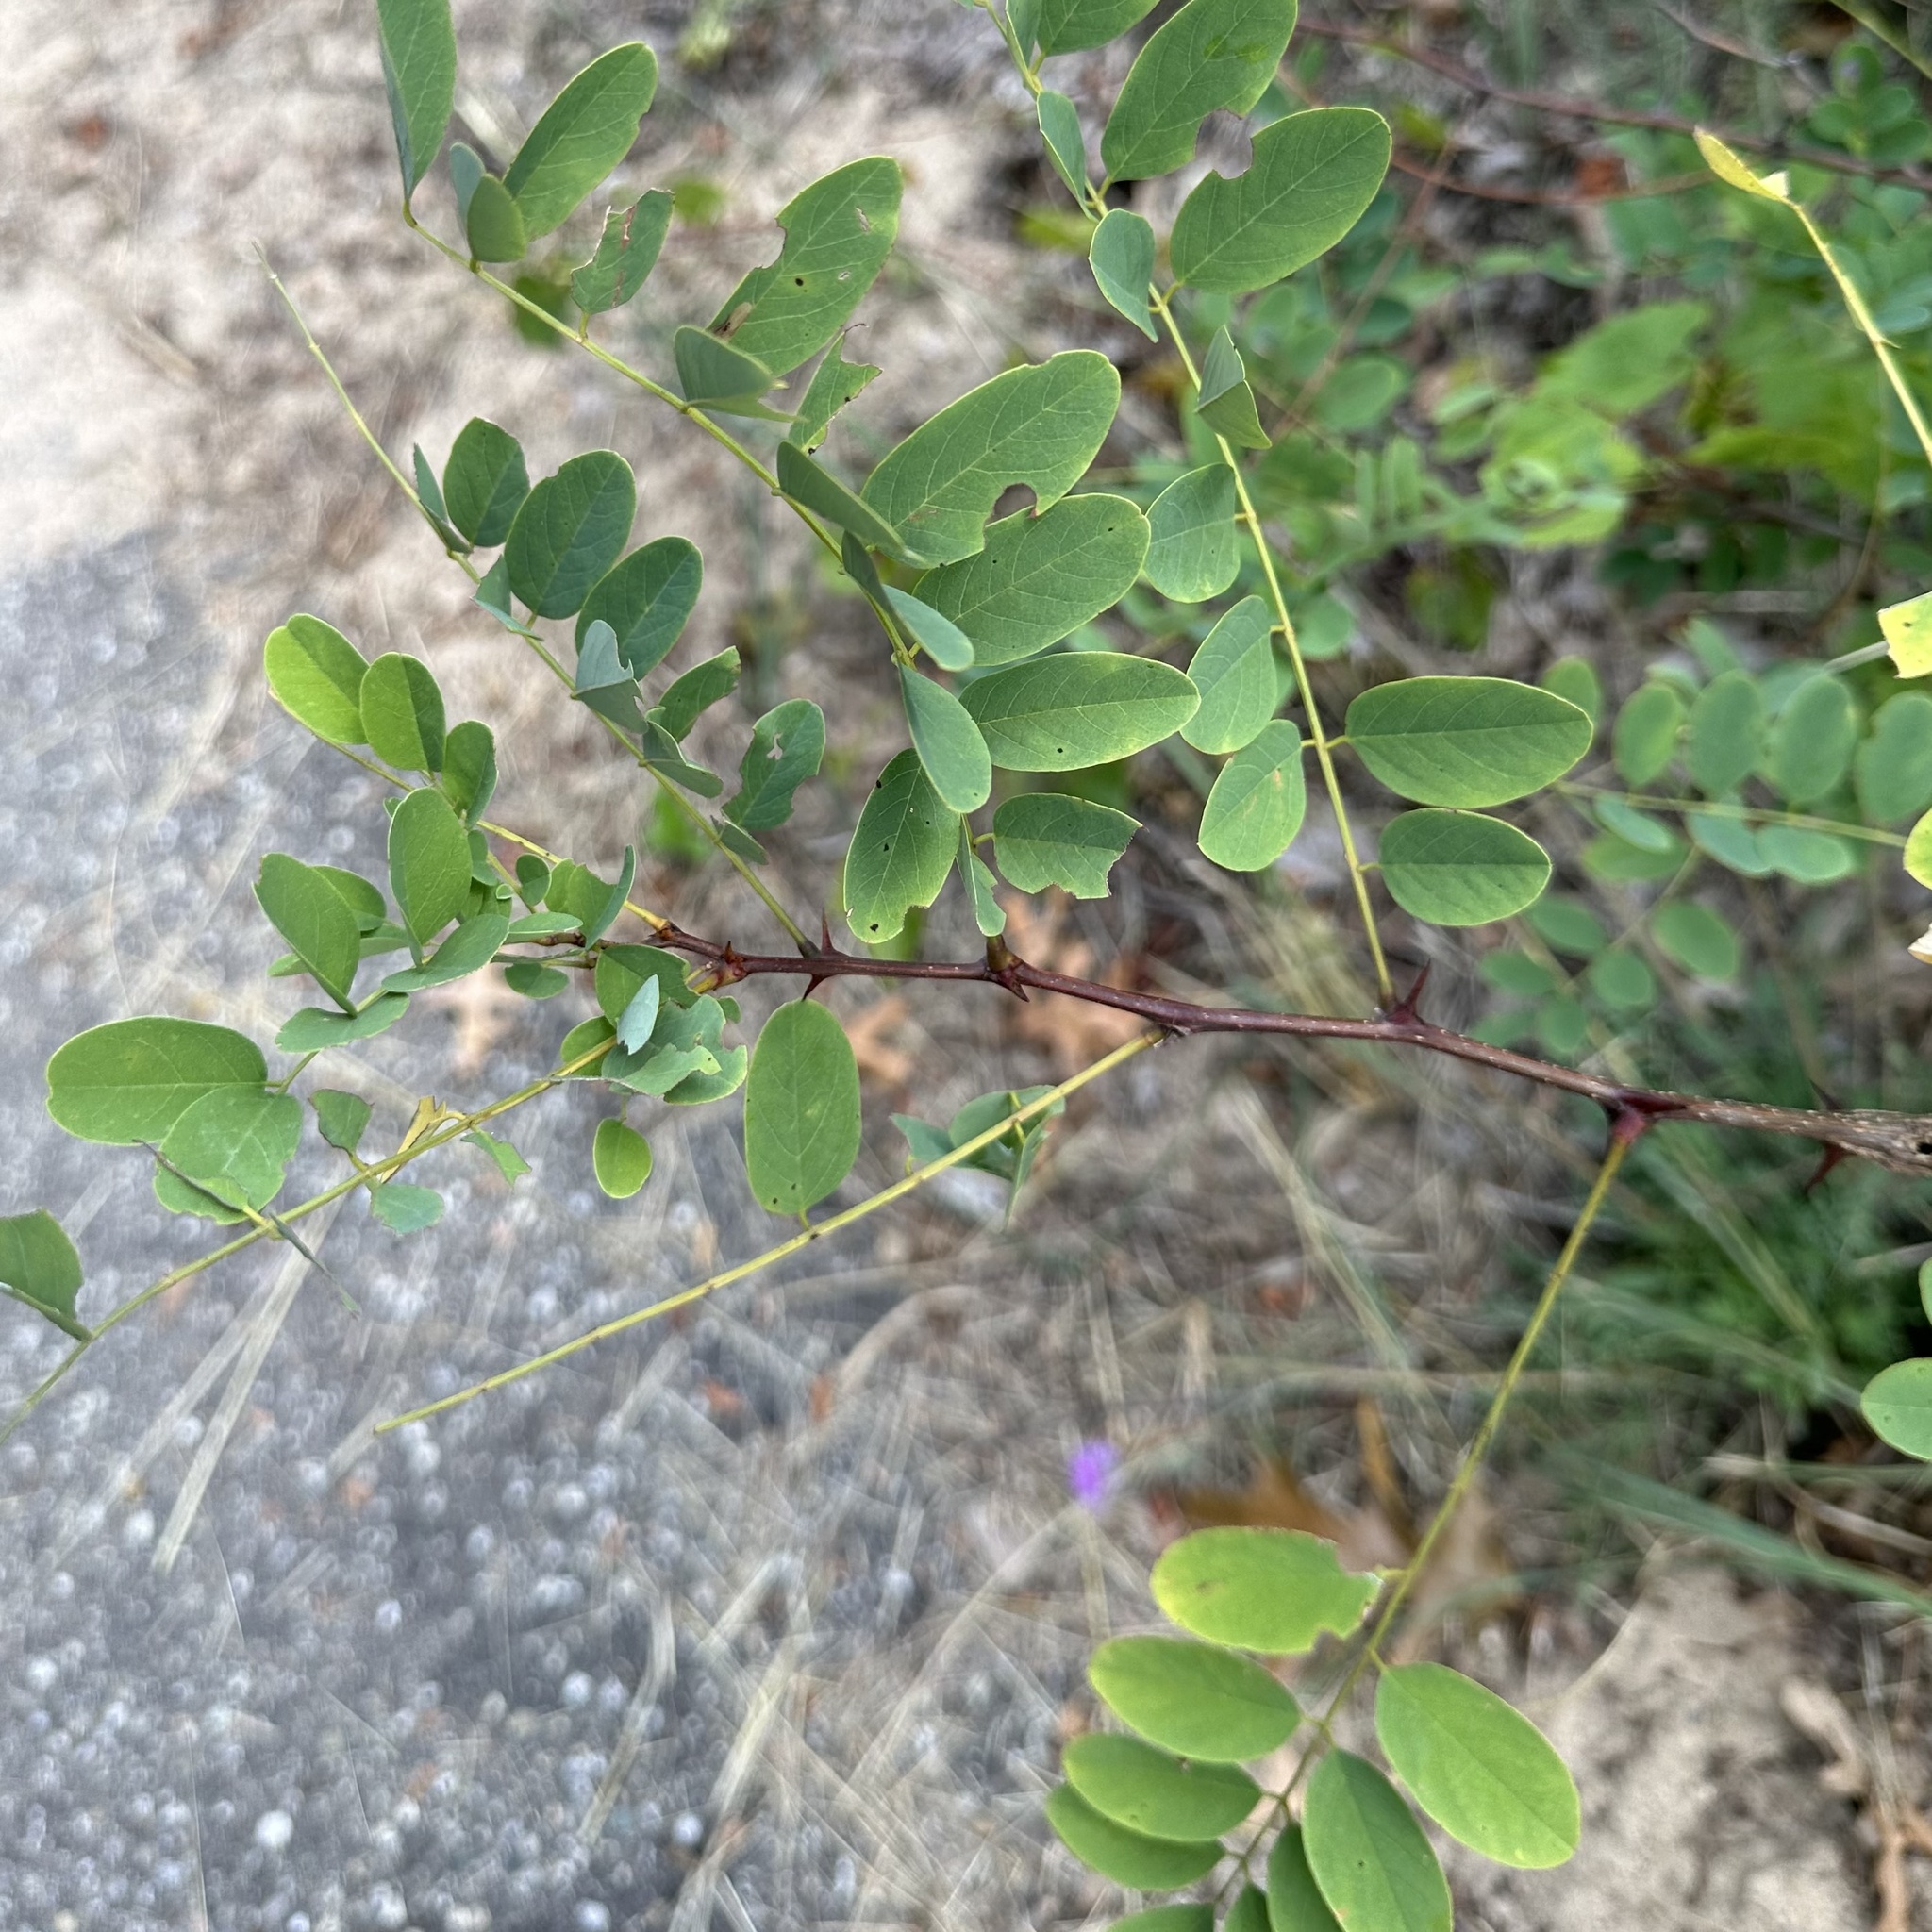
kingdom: Plantae
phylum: Tracheophyta
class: Magnoliopsida
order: Fabales
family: Fabaceae
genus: Robinia
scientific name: Robinia pseudoacacia
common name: Black locust
